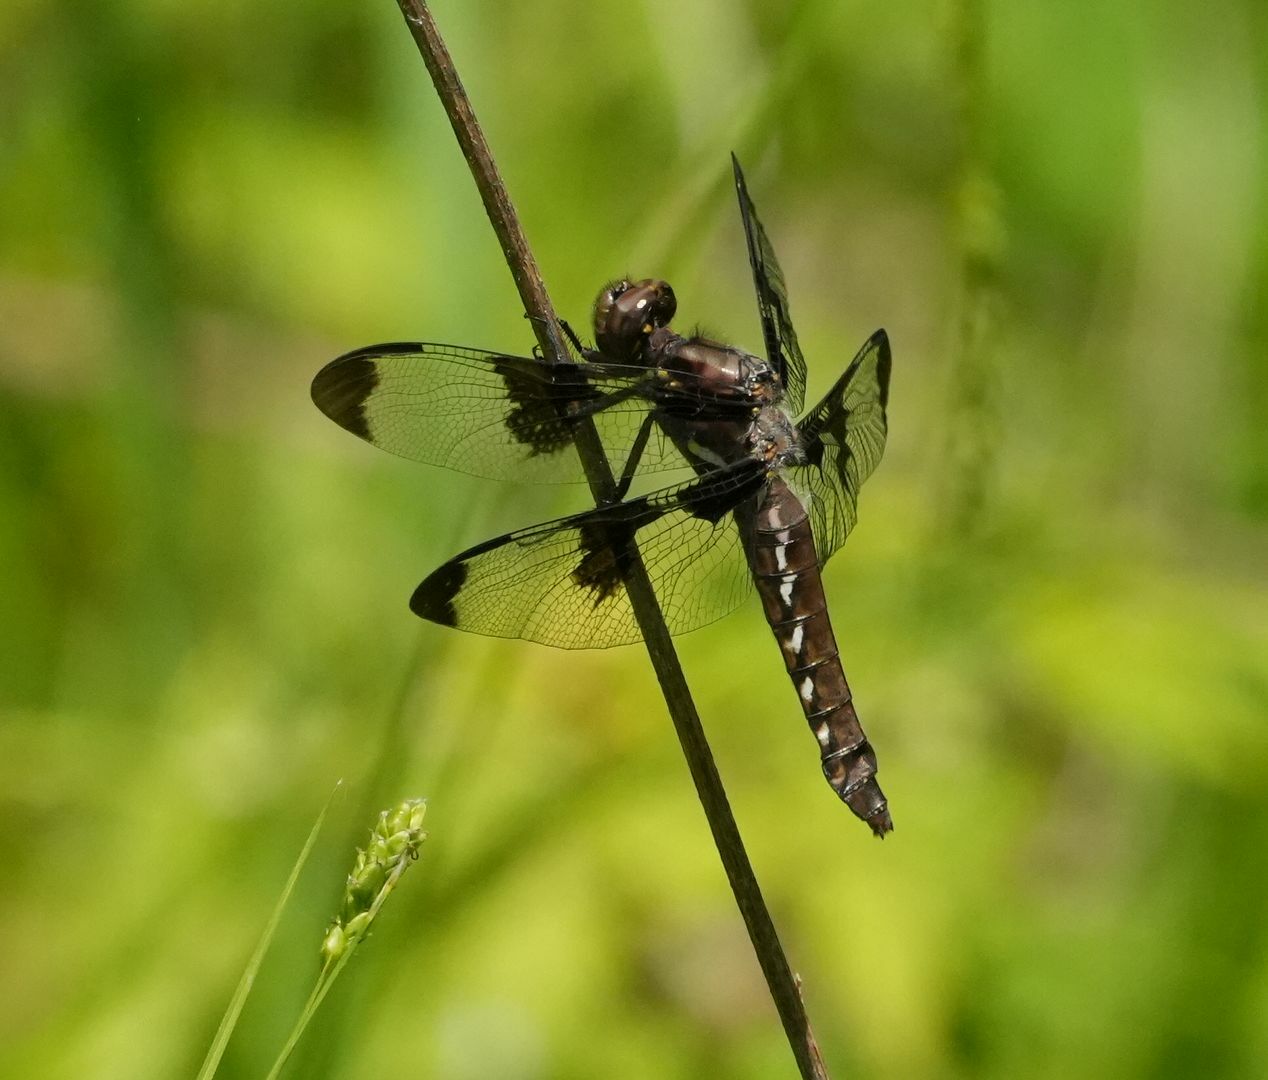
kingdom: Animalia
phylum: Arthropoda
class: Insecta
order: Odonata
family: Libellulidae
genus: Plathemis
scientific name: Plathemis lydia
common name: Common whitetail
